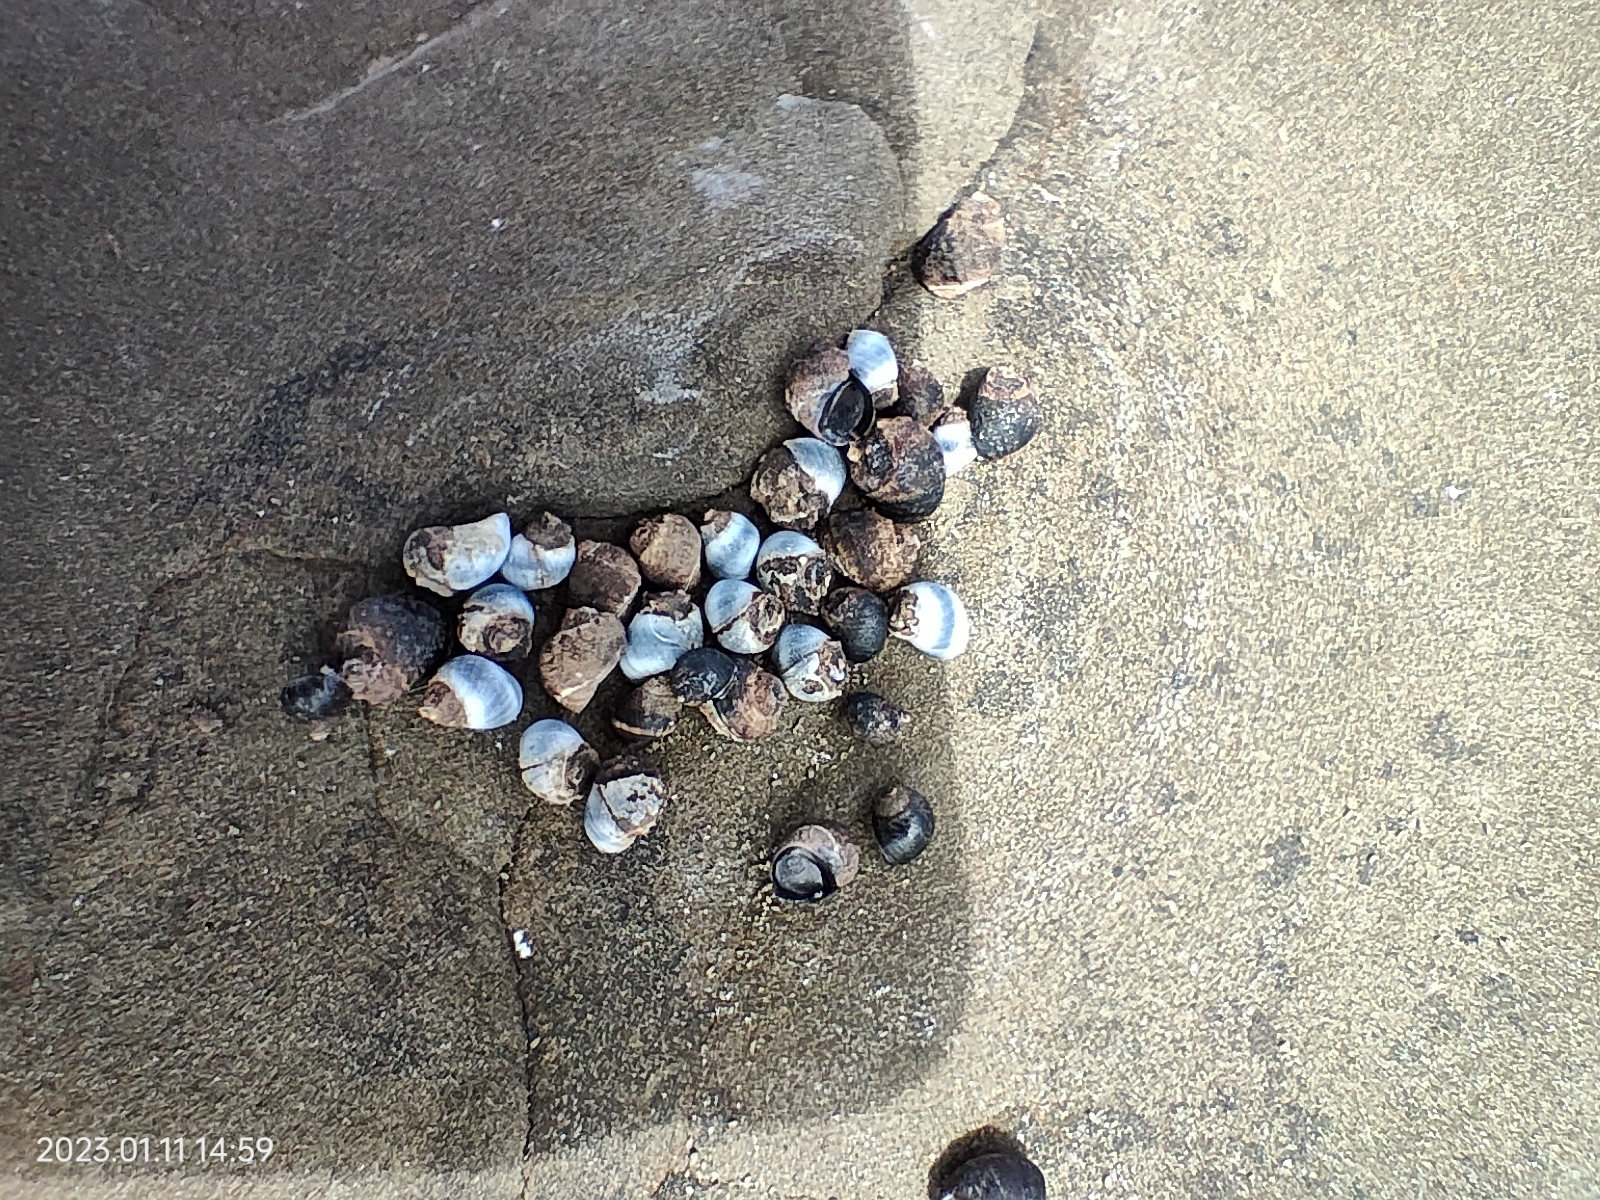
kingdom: Animalia
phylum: Mollusca
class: Gastropoda
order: Littorinimorpha
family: Littorinidae
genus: Austrolittorina
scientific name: Austrolittorina antipodum
